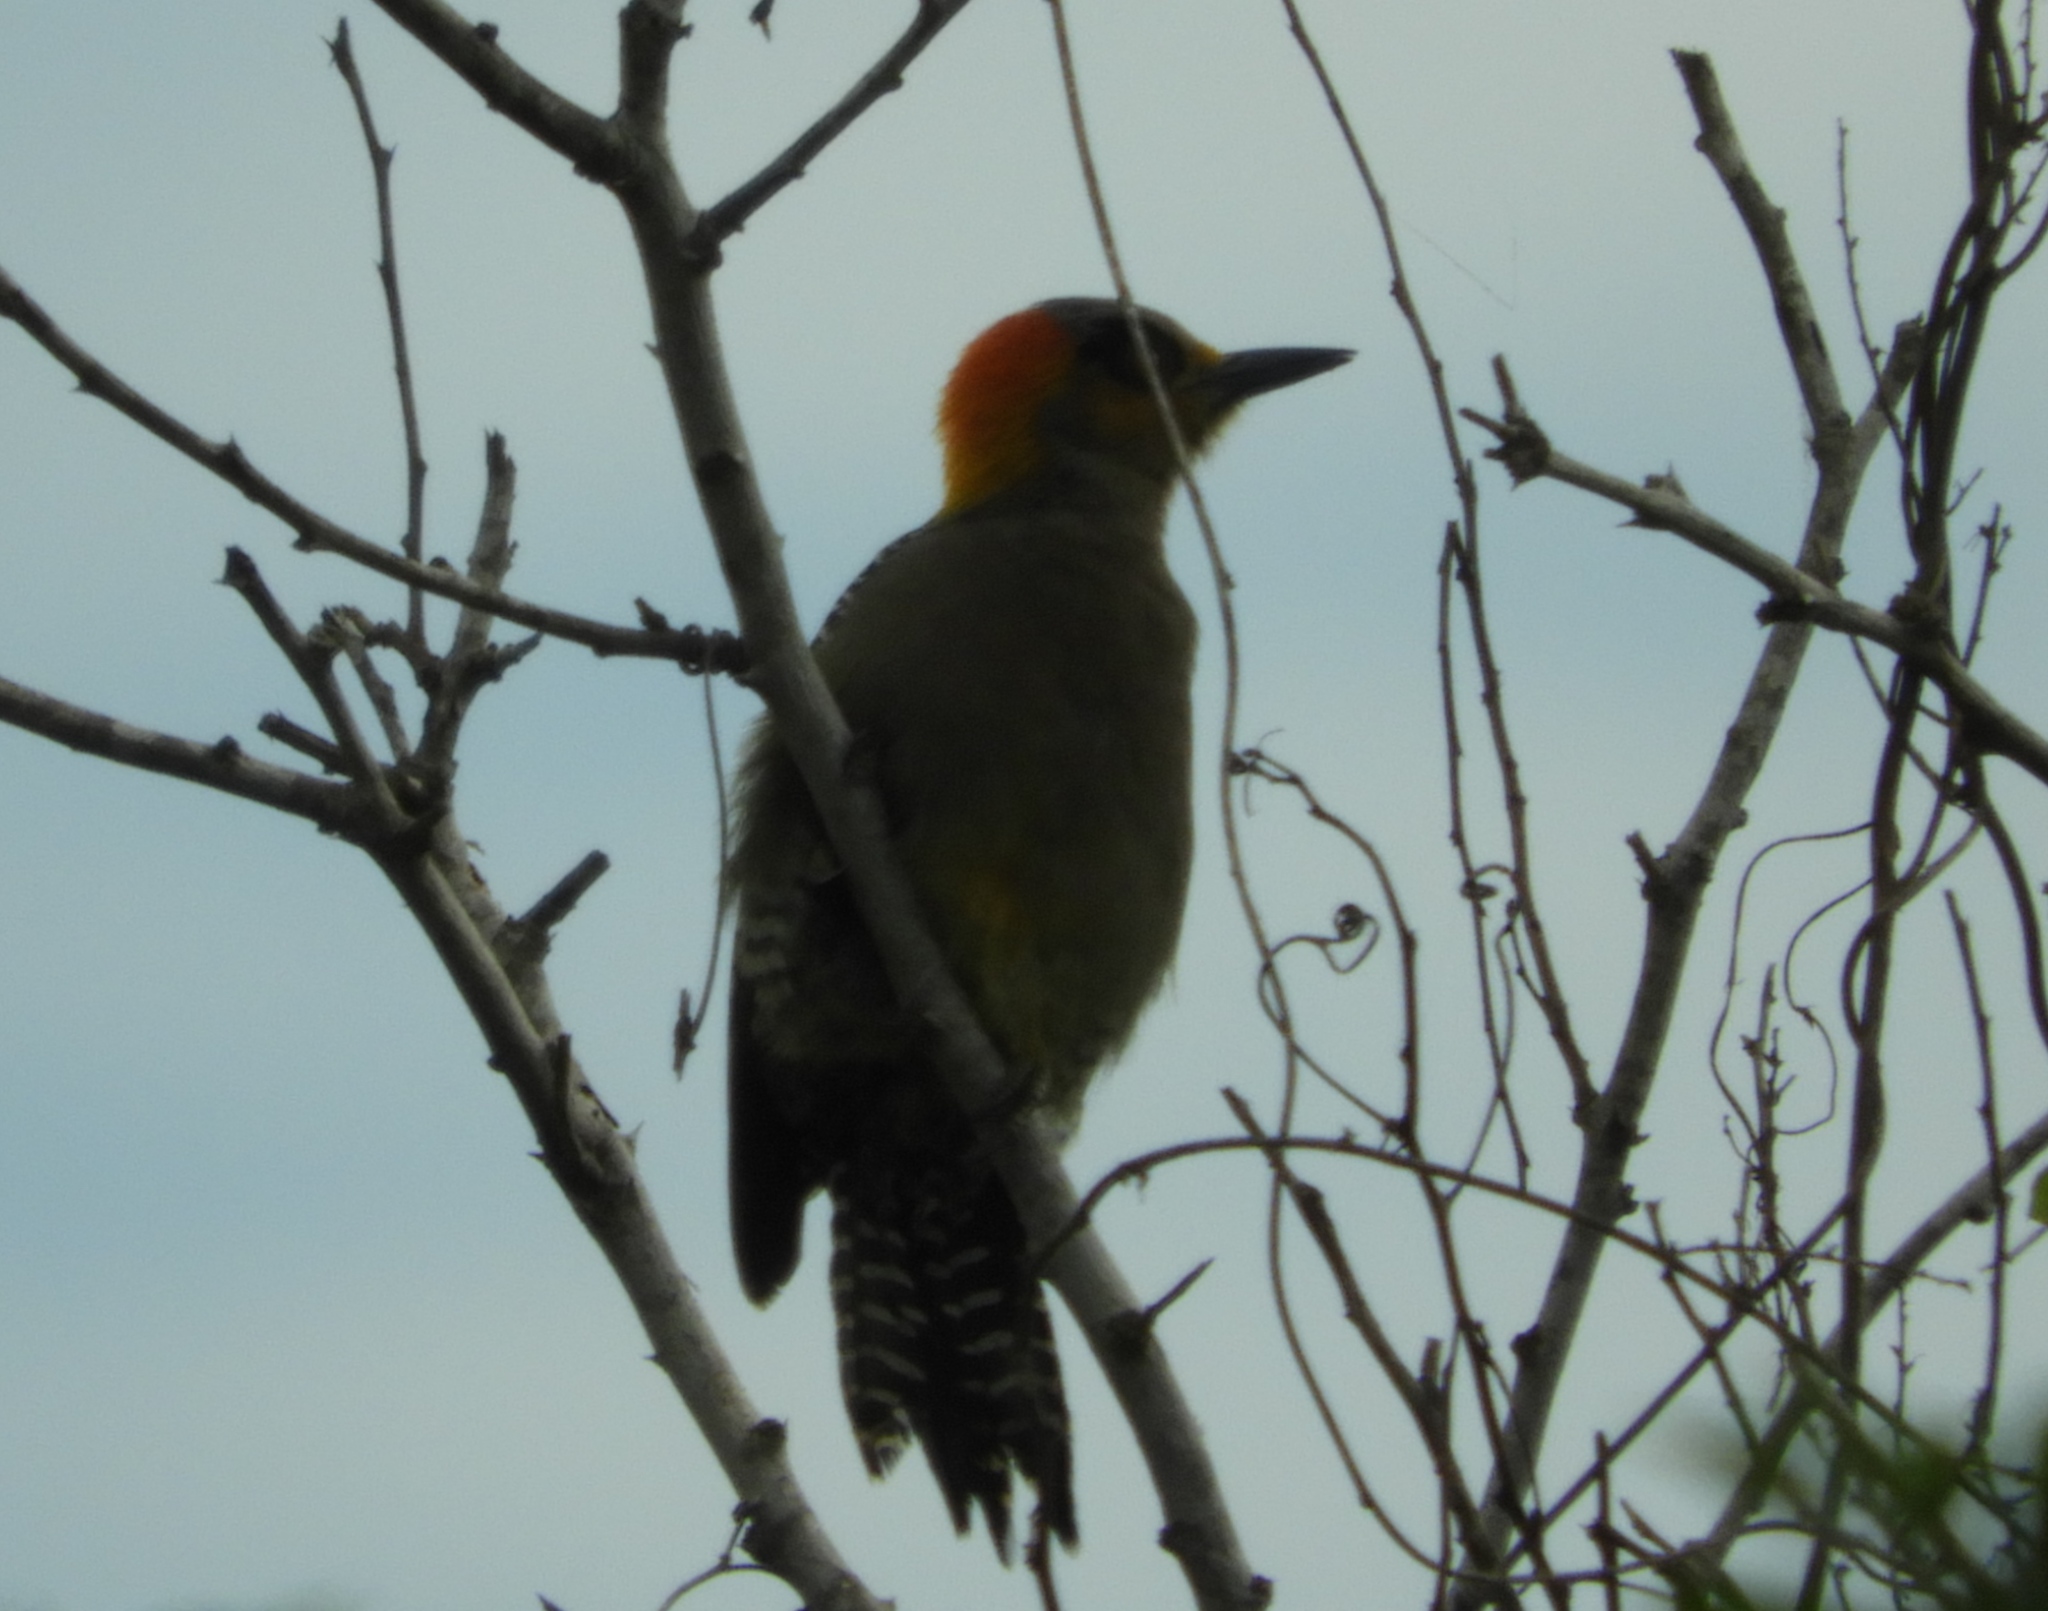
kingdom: Animalia
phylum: Chordata
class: Aves
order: Piciformes
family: Picidae
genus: Melanerpes
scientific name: Melanerpes chrysogenys
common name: Golden-cheeked woodpecker
